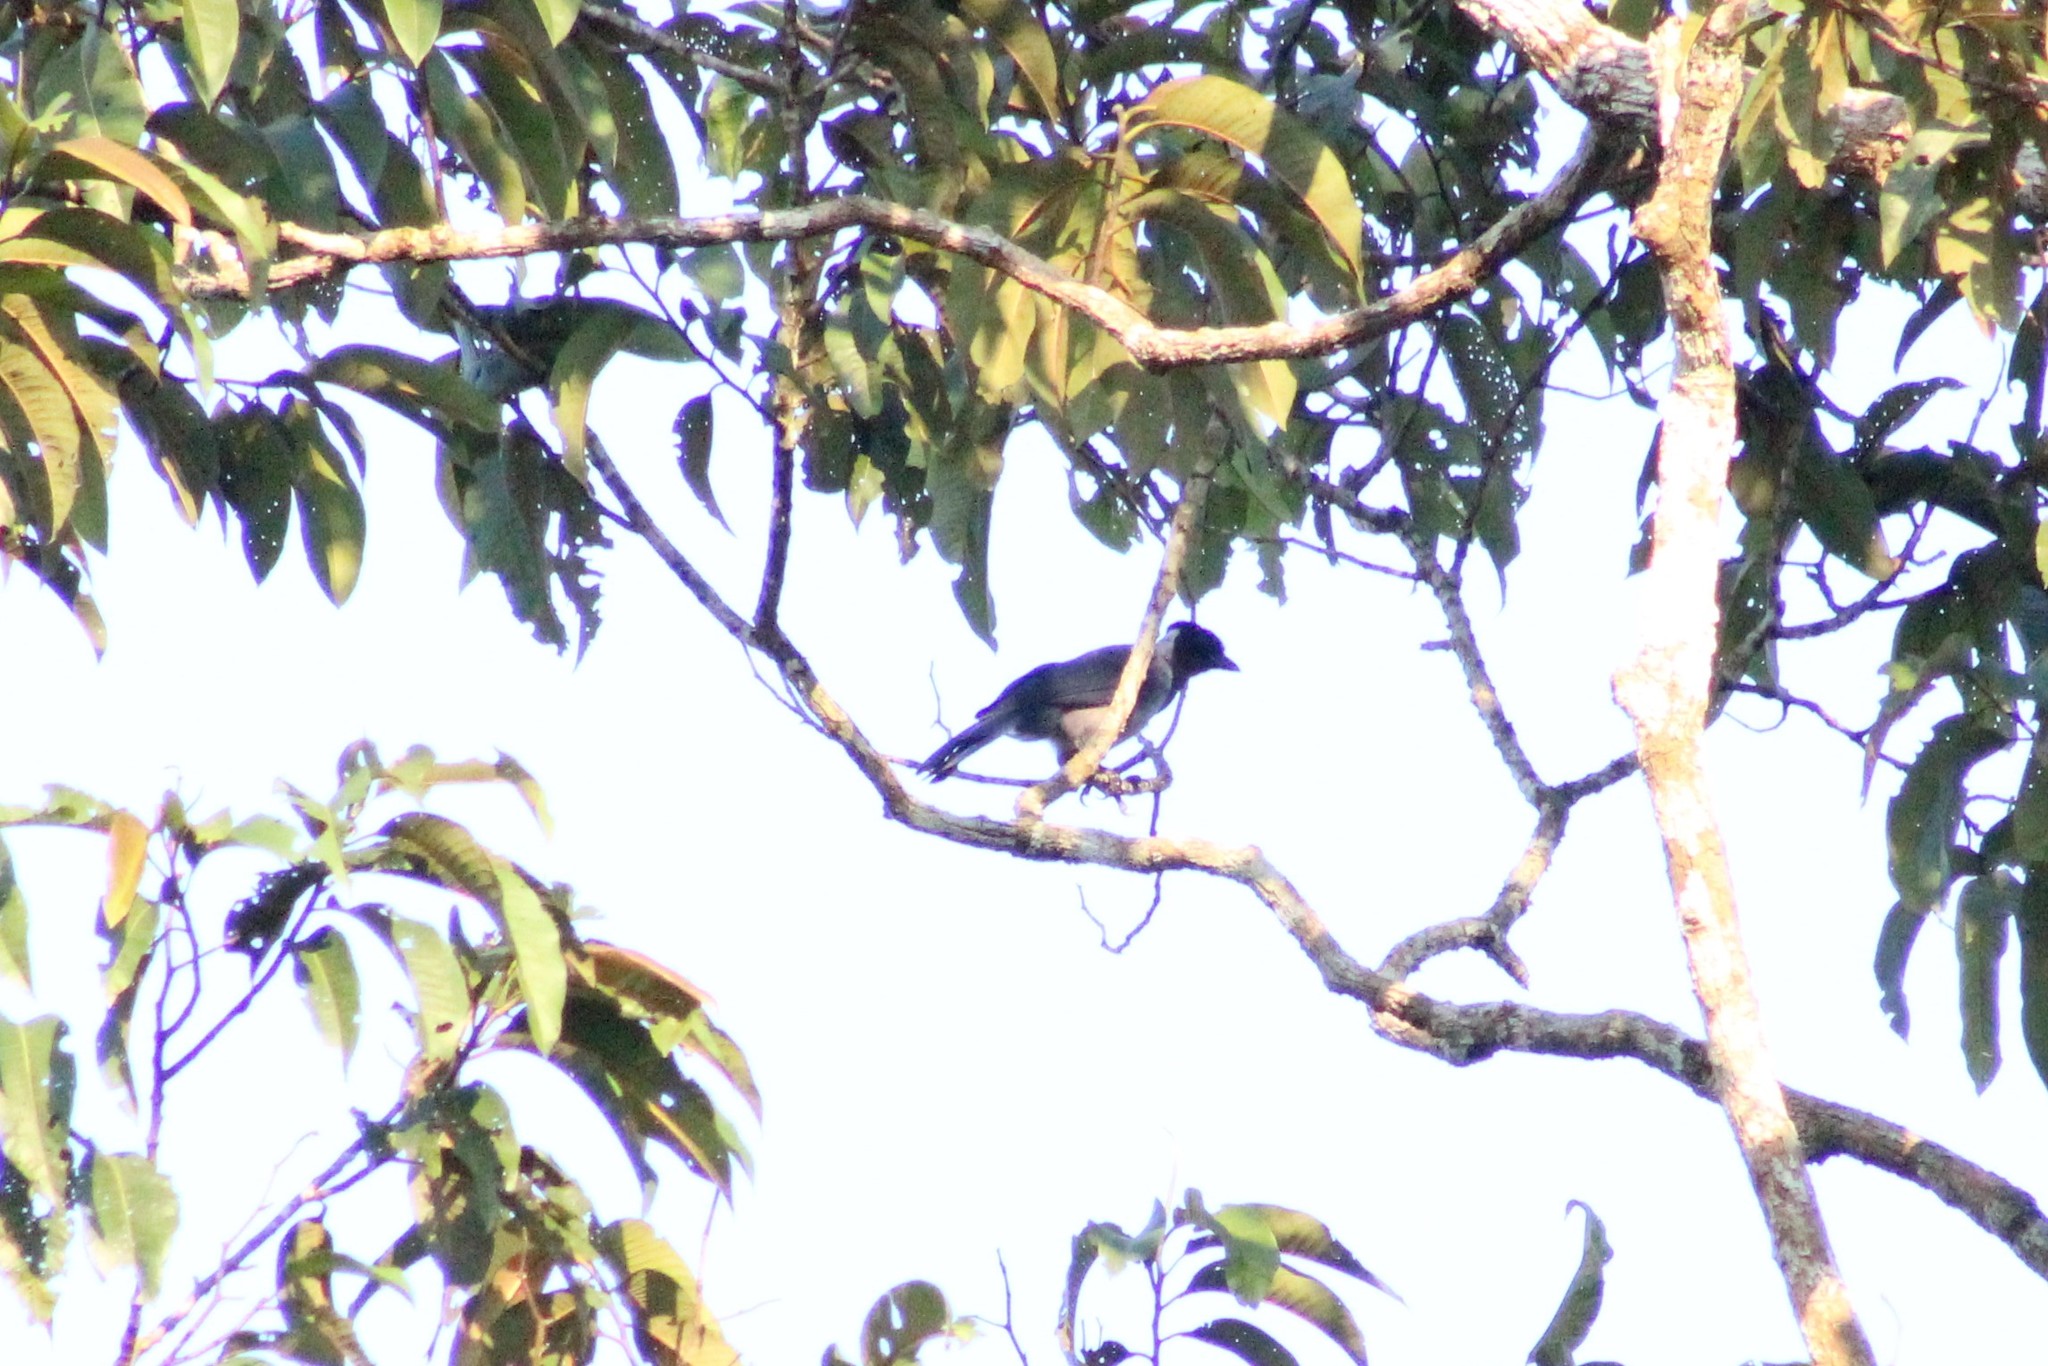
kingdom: Animalia
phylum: Chordata
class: Aves
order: Passeriformes
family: Corvidae
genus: Cyanocorax
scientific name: Cyanocorax violaceus
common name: Violaceous jay
